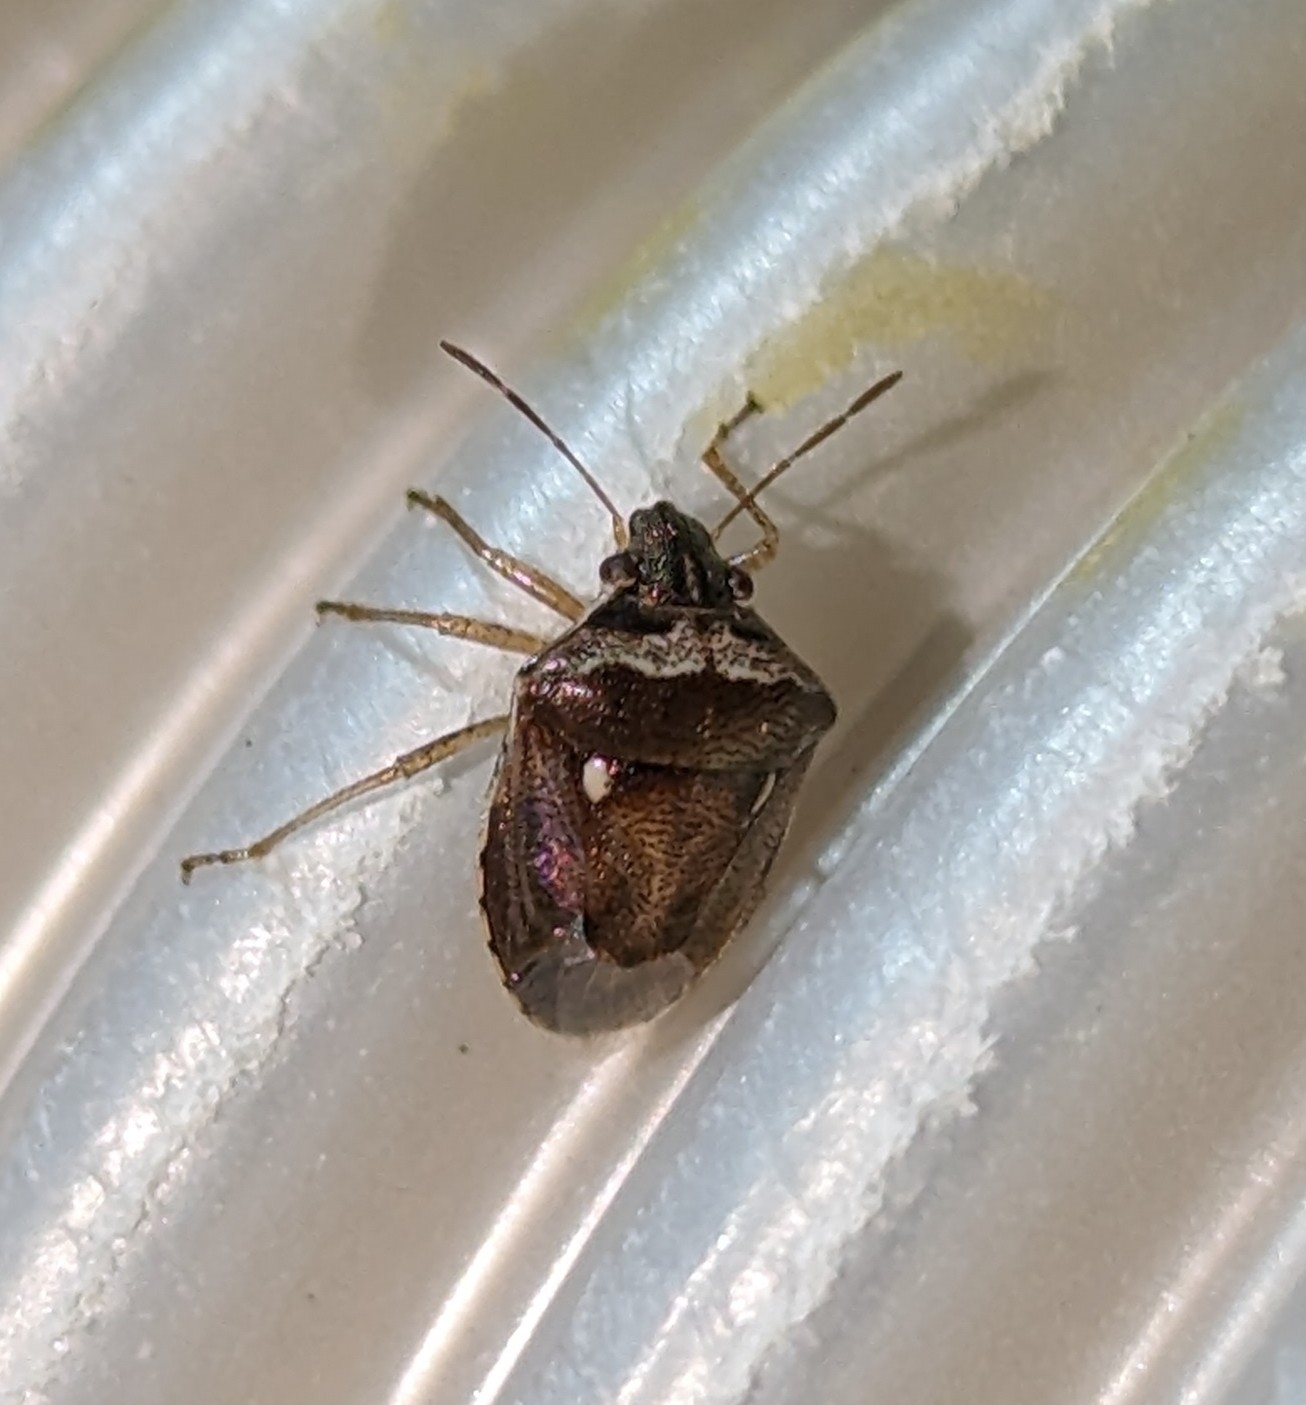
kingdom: Animalia
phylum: Arthropoda
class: Insecta
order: Hemiptera
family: Pentatomidae
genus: Eysarcoris
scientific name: Eysarcoris ventralis
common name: White-spotted stink bug
